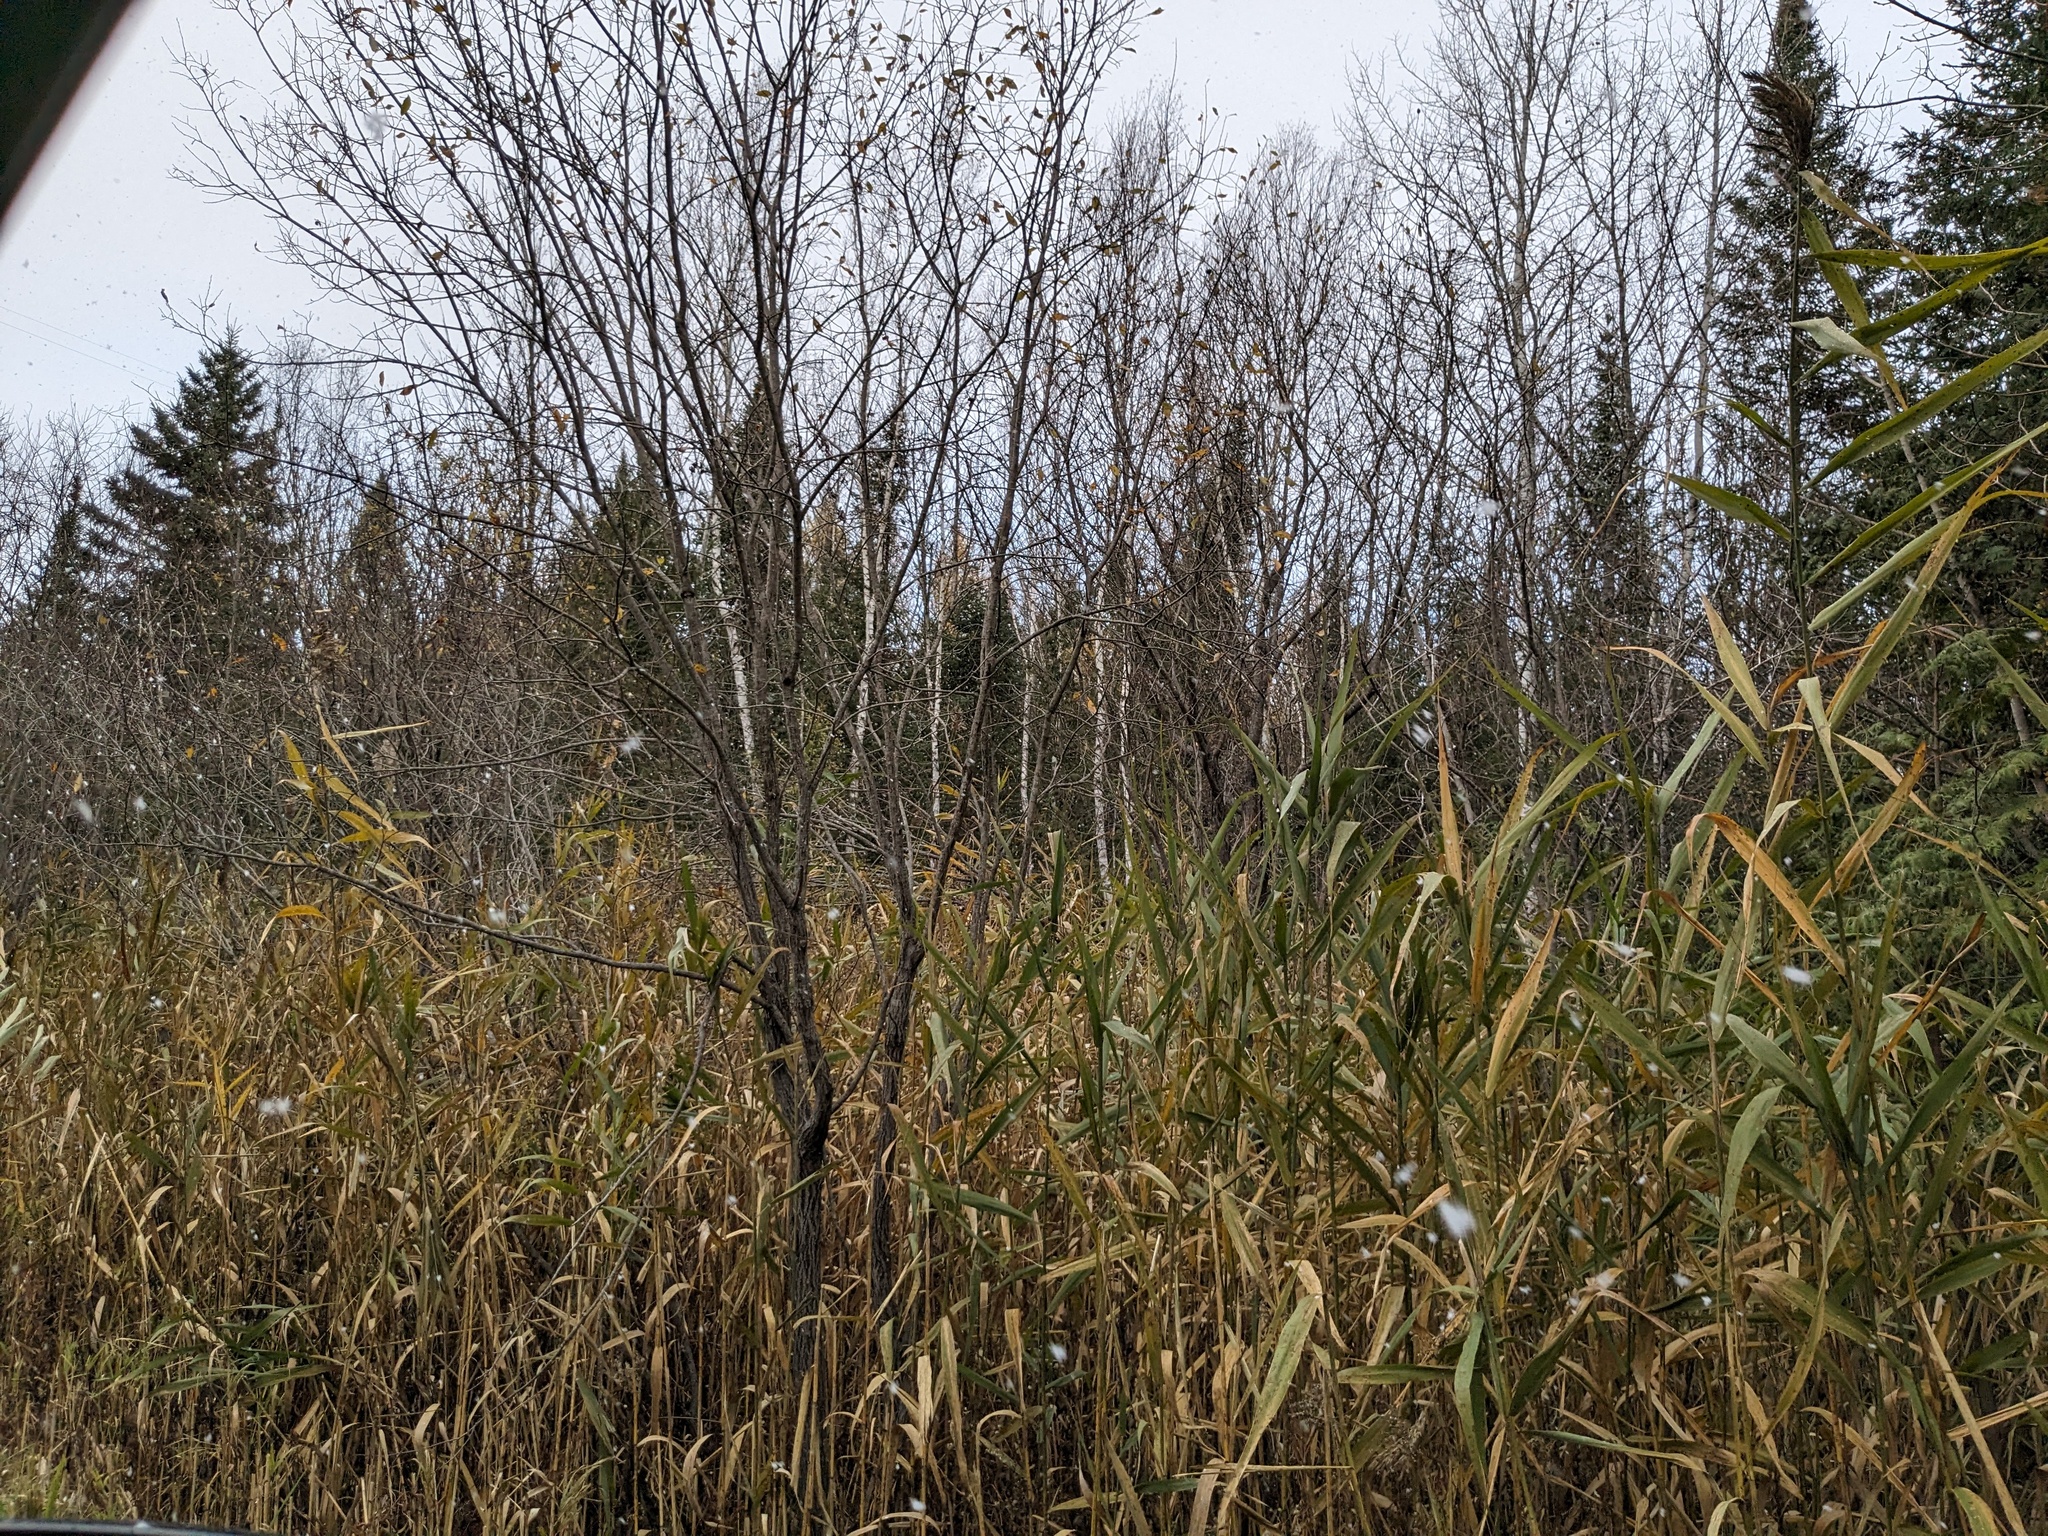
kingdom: Plantae
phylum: Tracheophyta
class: Liliopsida
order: Poales
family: Poaceae
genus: Phragmites
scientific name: Phragmites australis
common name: Common reed
